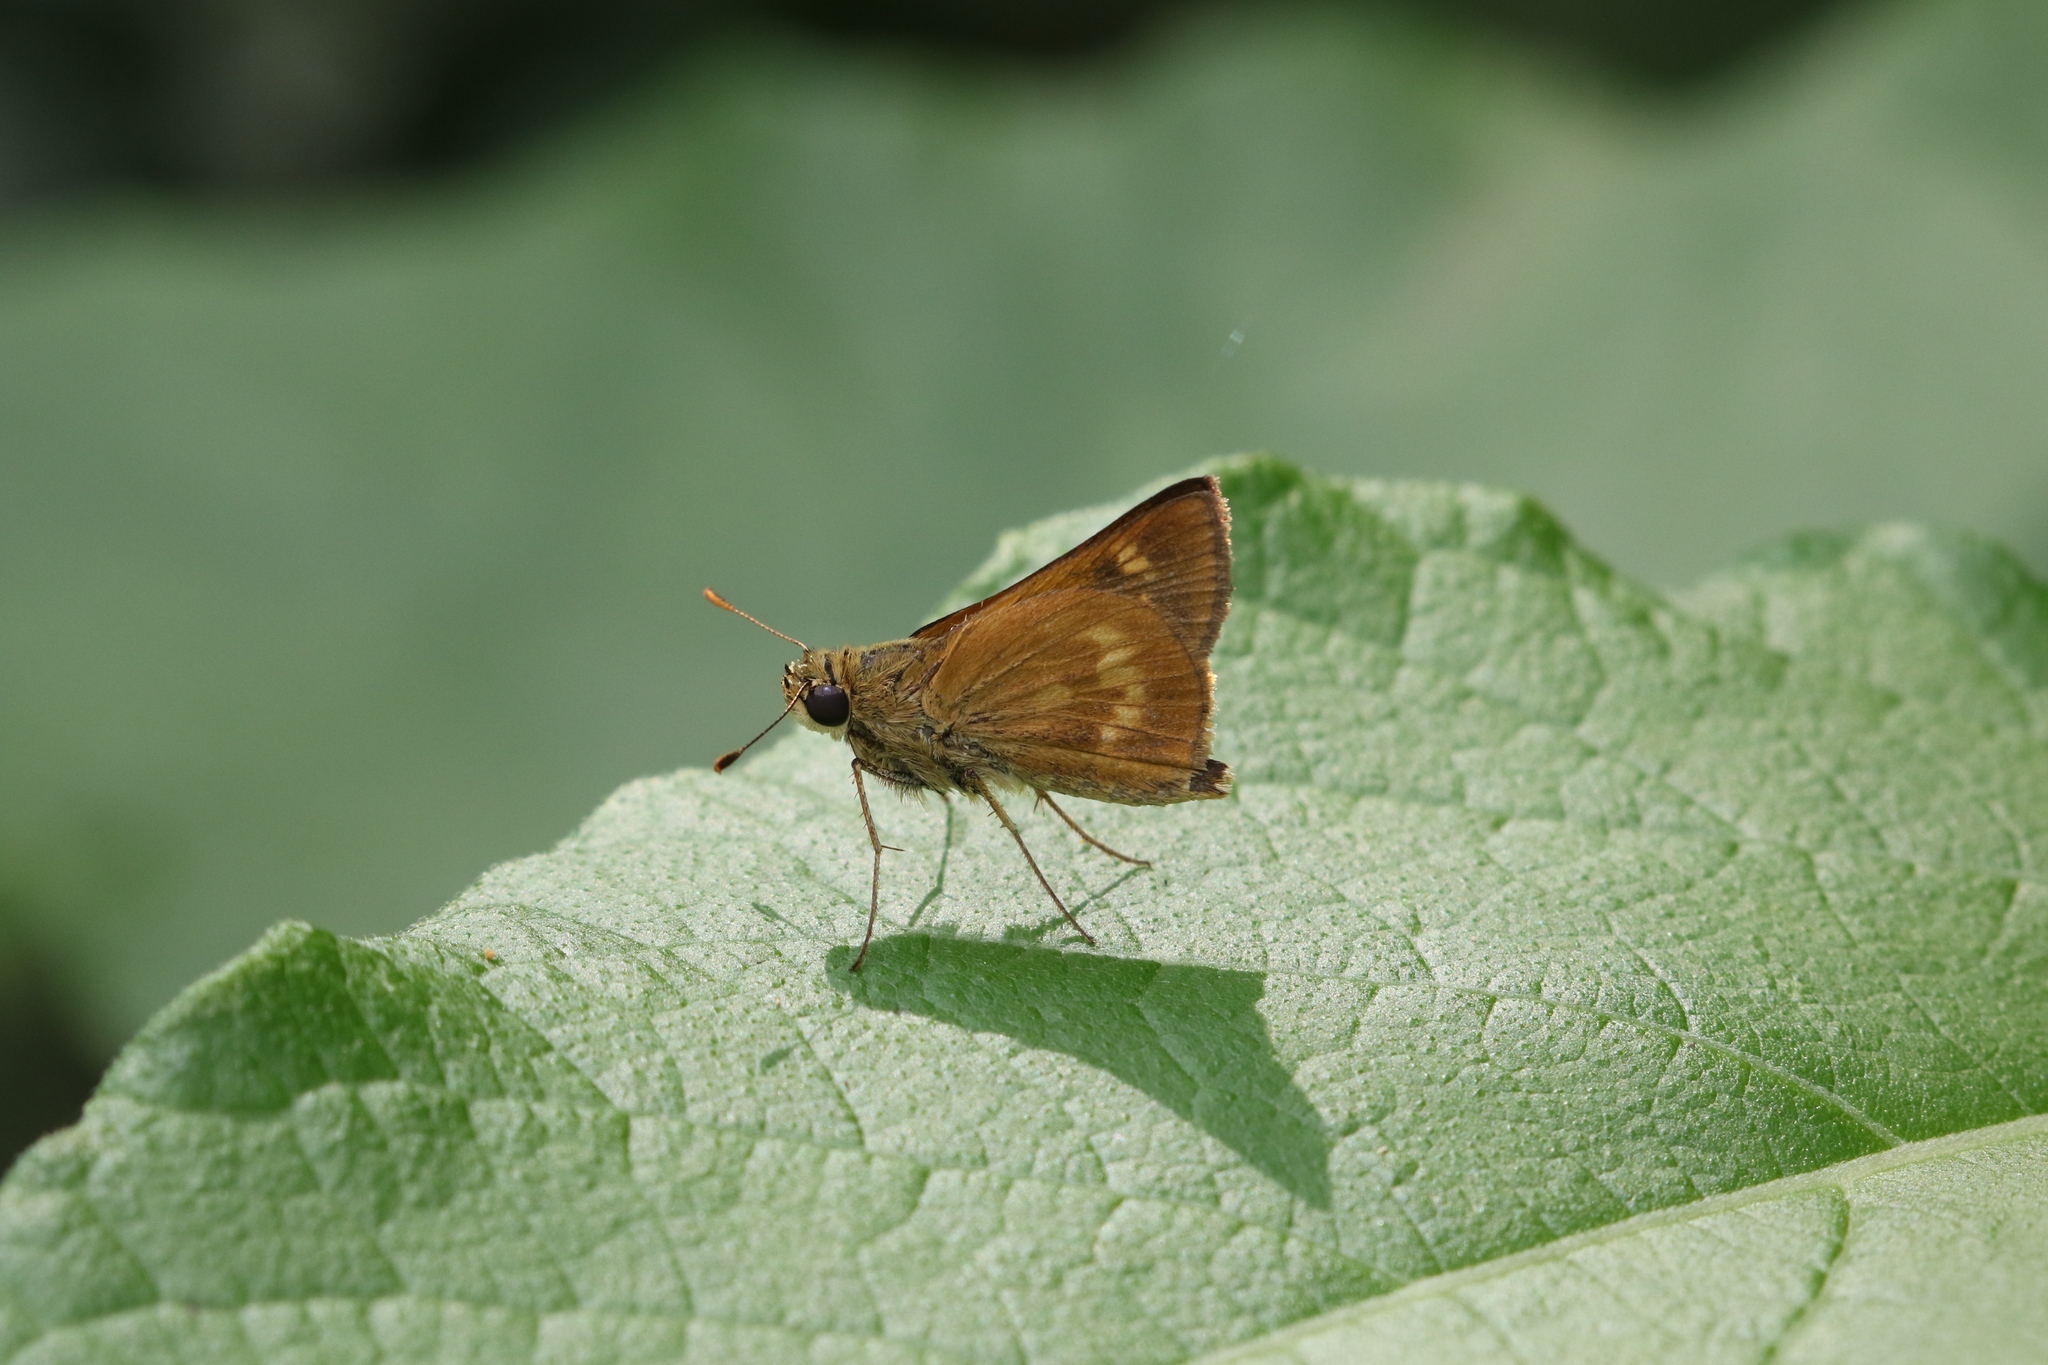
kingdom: Animalia
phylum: Arthropoda
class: Insecta
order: Lepidoptera
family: Hesperiidae
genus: Polites
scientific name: Polites otho
